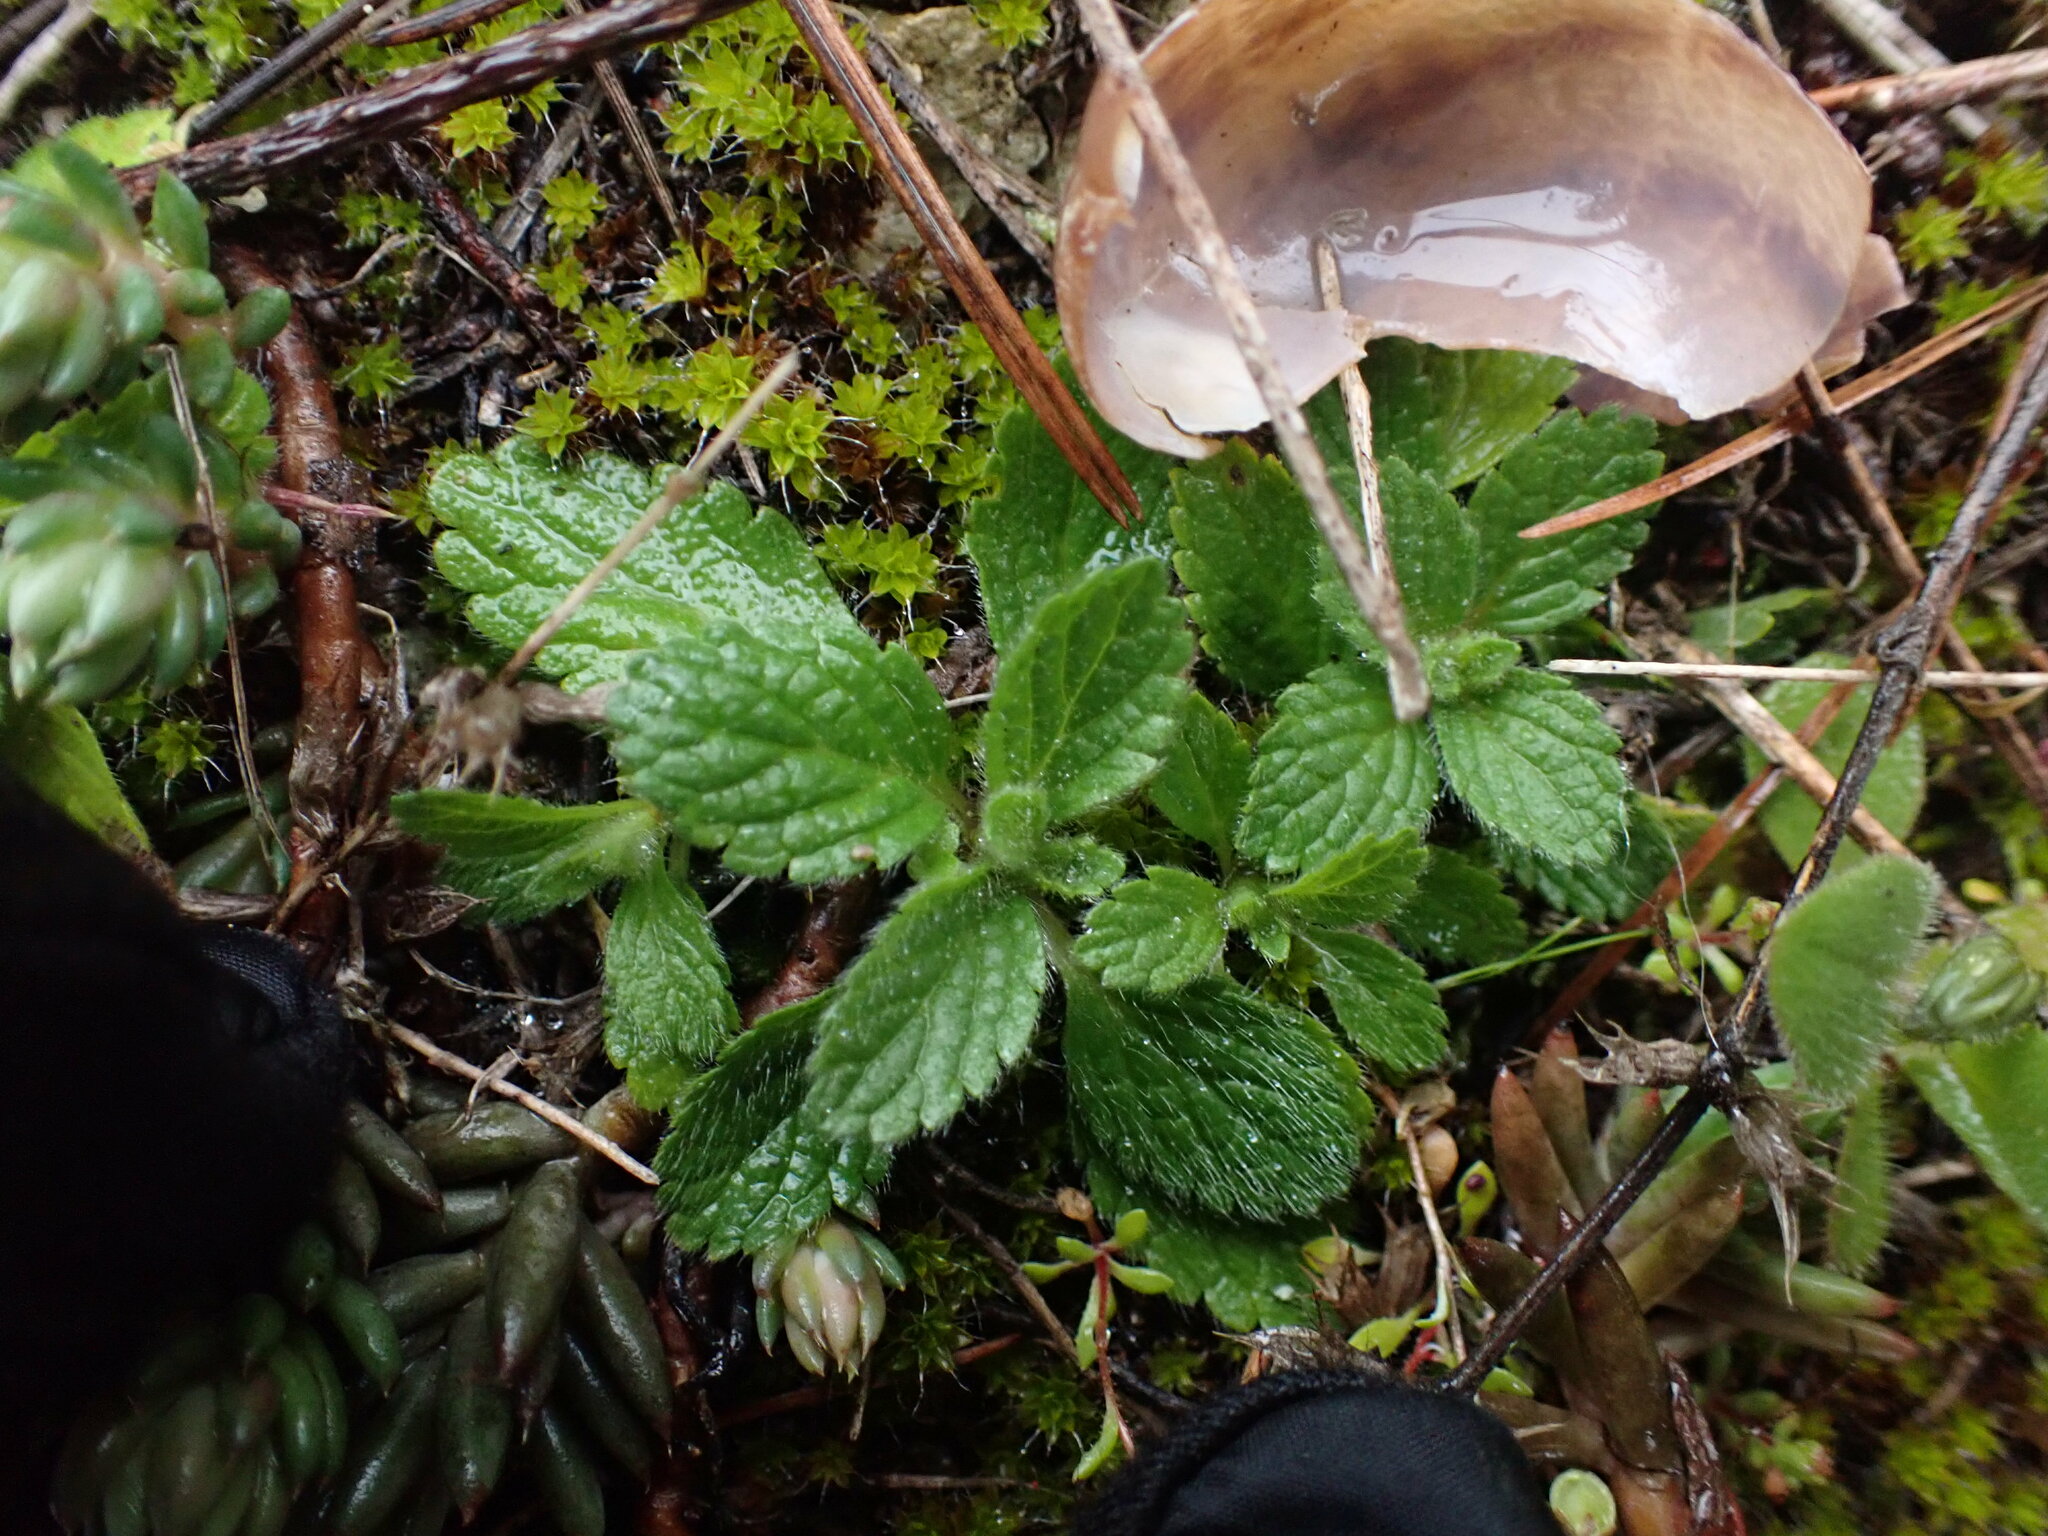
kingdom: Plantae
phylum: Tracheophyta
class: Magnoliopsida
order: Lamiales
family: Lamiaceae
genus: Sideritis
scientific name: Sideritis romana
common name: Simplebeak ironwort
